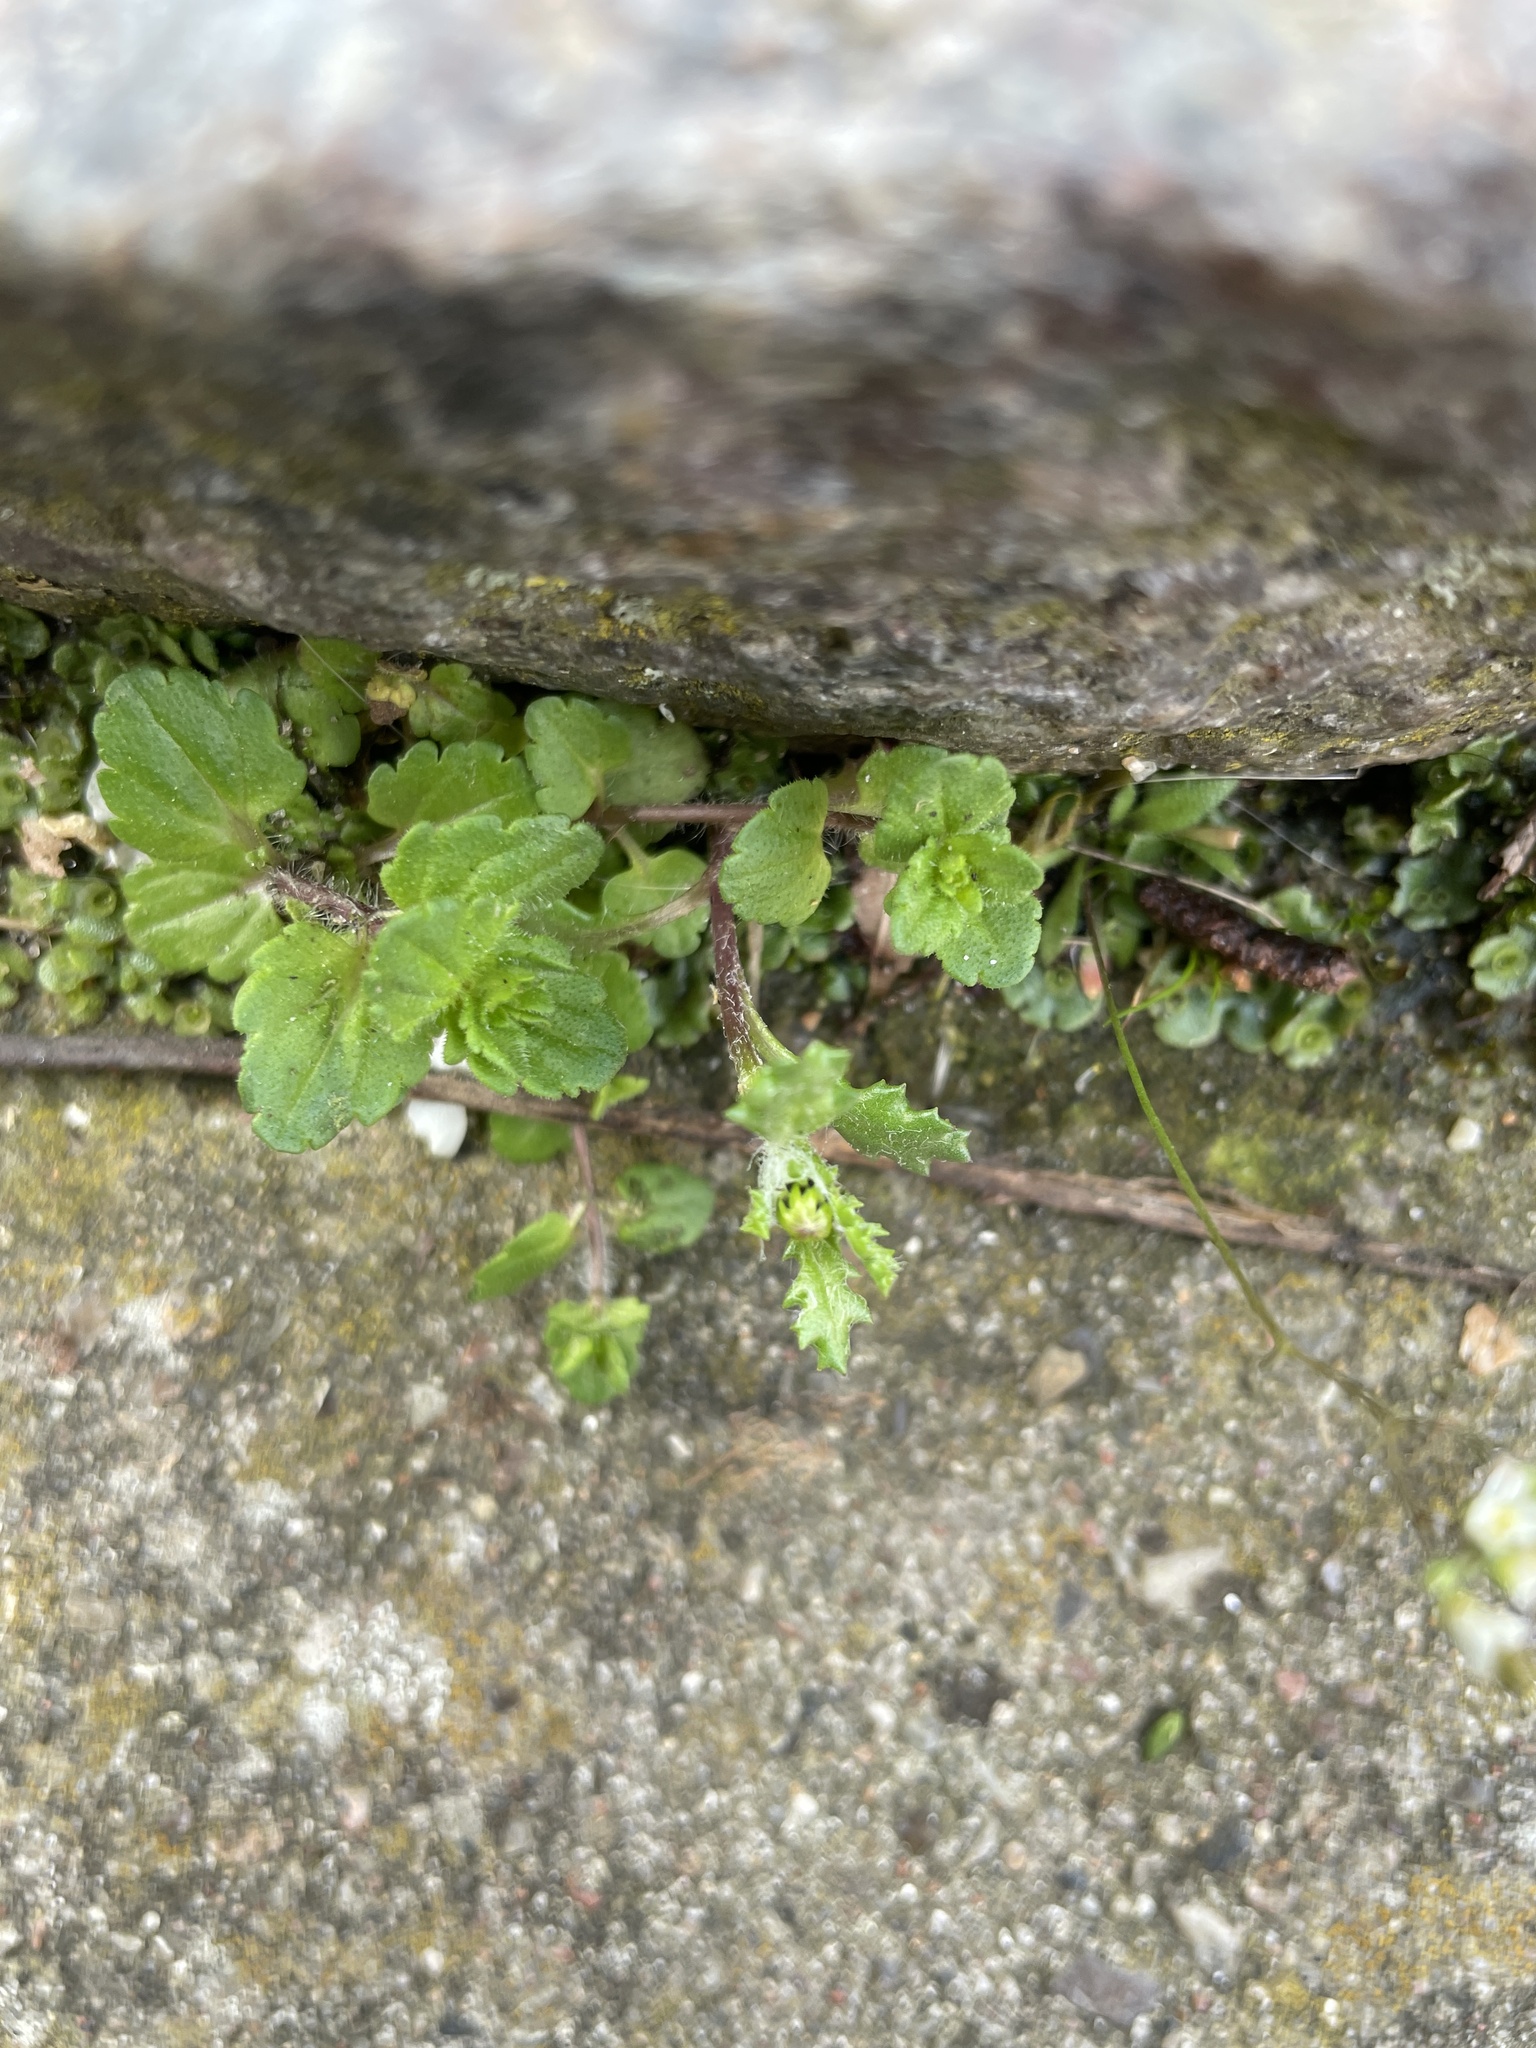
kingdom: Plantae
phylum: Tracheophyta
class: Magnoliopsida
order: Asterales
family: Asteraceae
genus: Senecio
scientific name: Senecio vulgaris
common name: Old-man-in-the-spring
